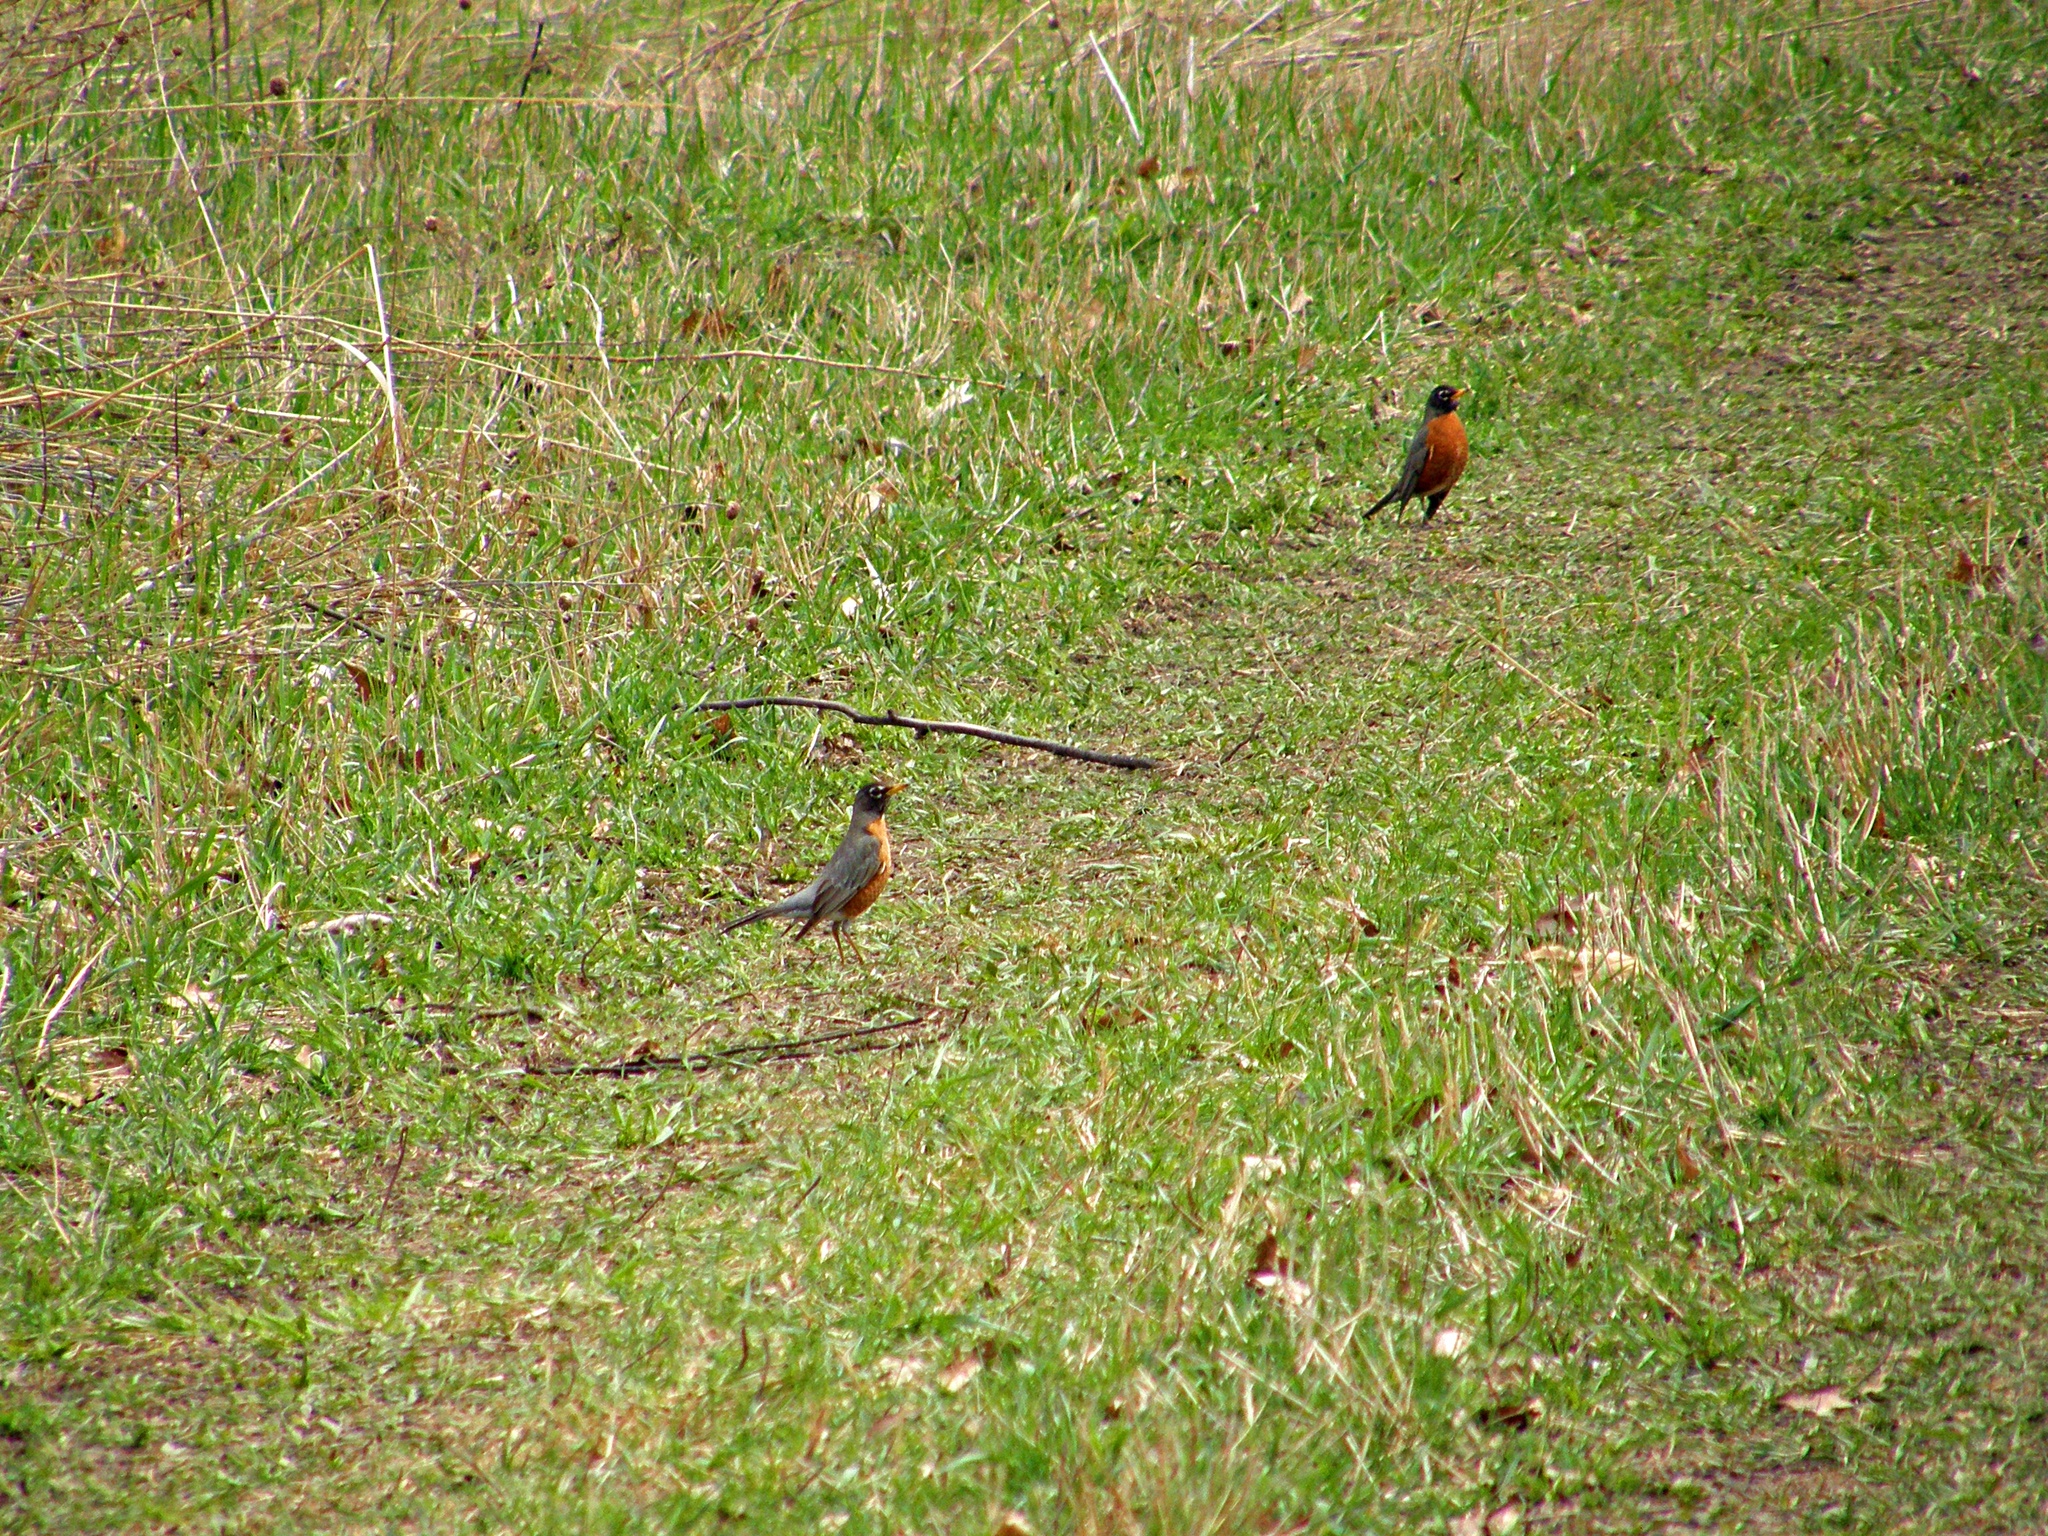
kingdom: Animalia
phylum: Chordata
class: Aves
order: Passeriformes
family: Turdidae
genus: Turdus
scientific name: Turdus migratorius
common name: American robin
